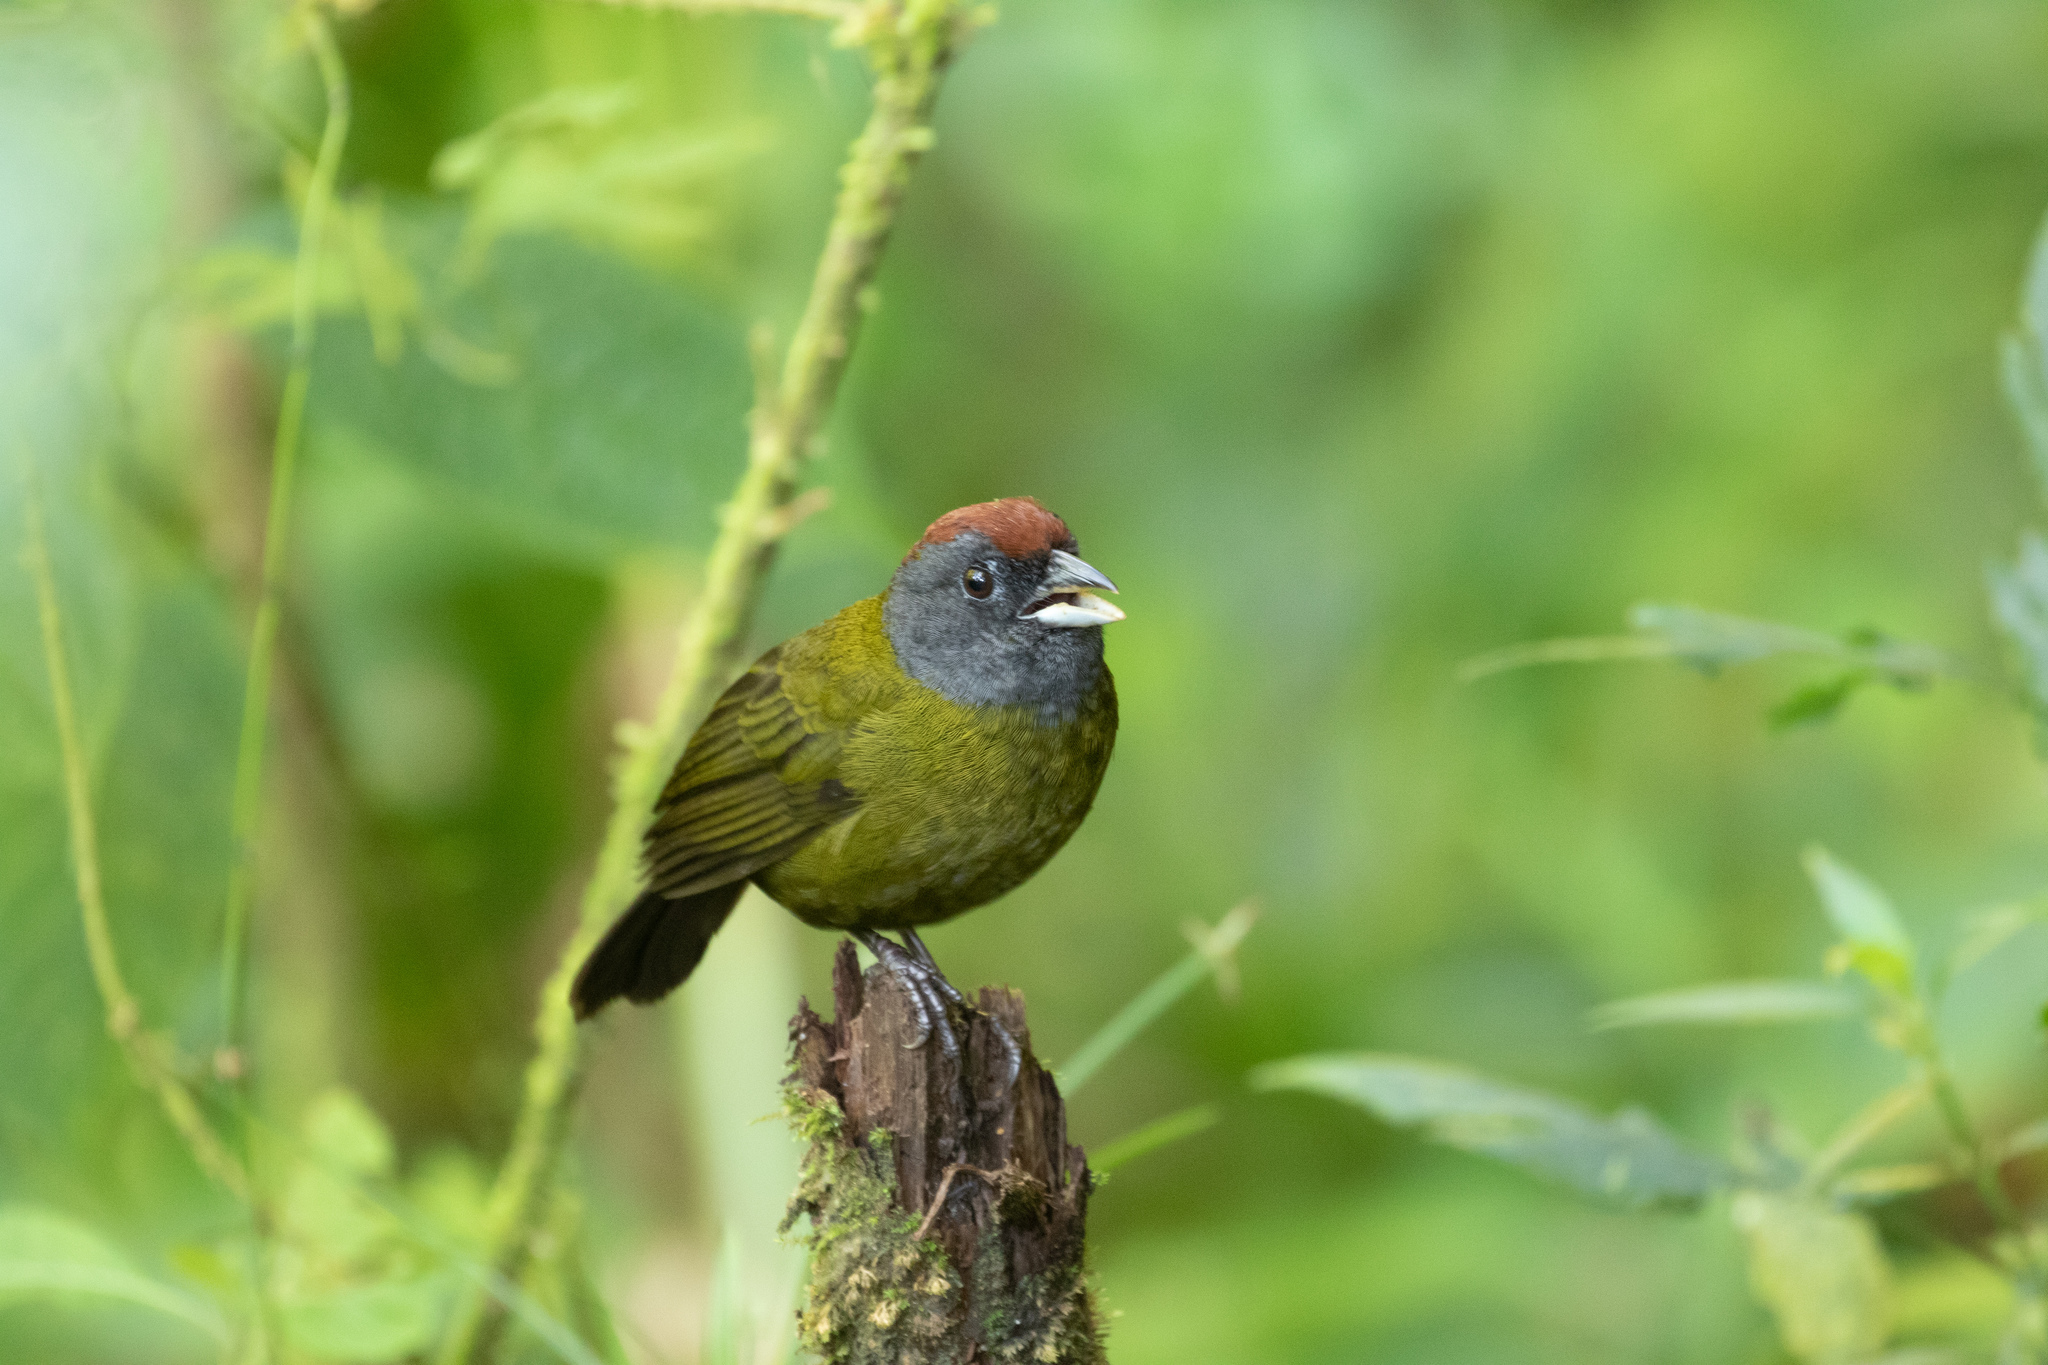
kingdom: Animalia
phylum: Chordata
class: Aves
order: Passeriformes
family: Passerellidae
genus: Arremon
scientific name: Arremon castaneiceps
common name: Olive finch
